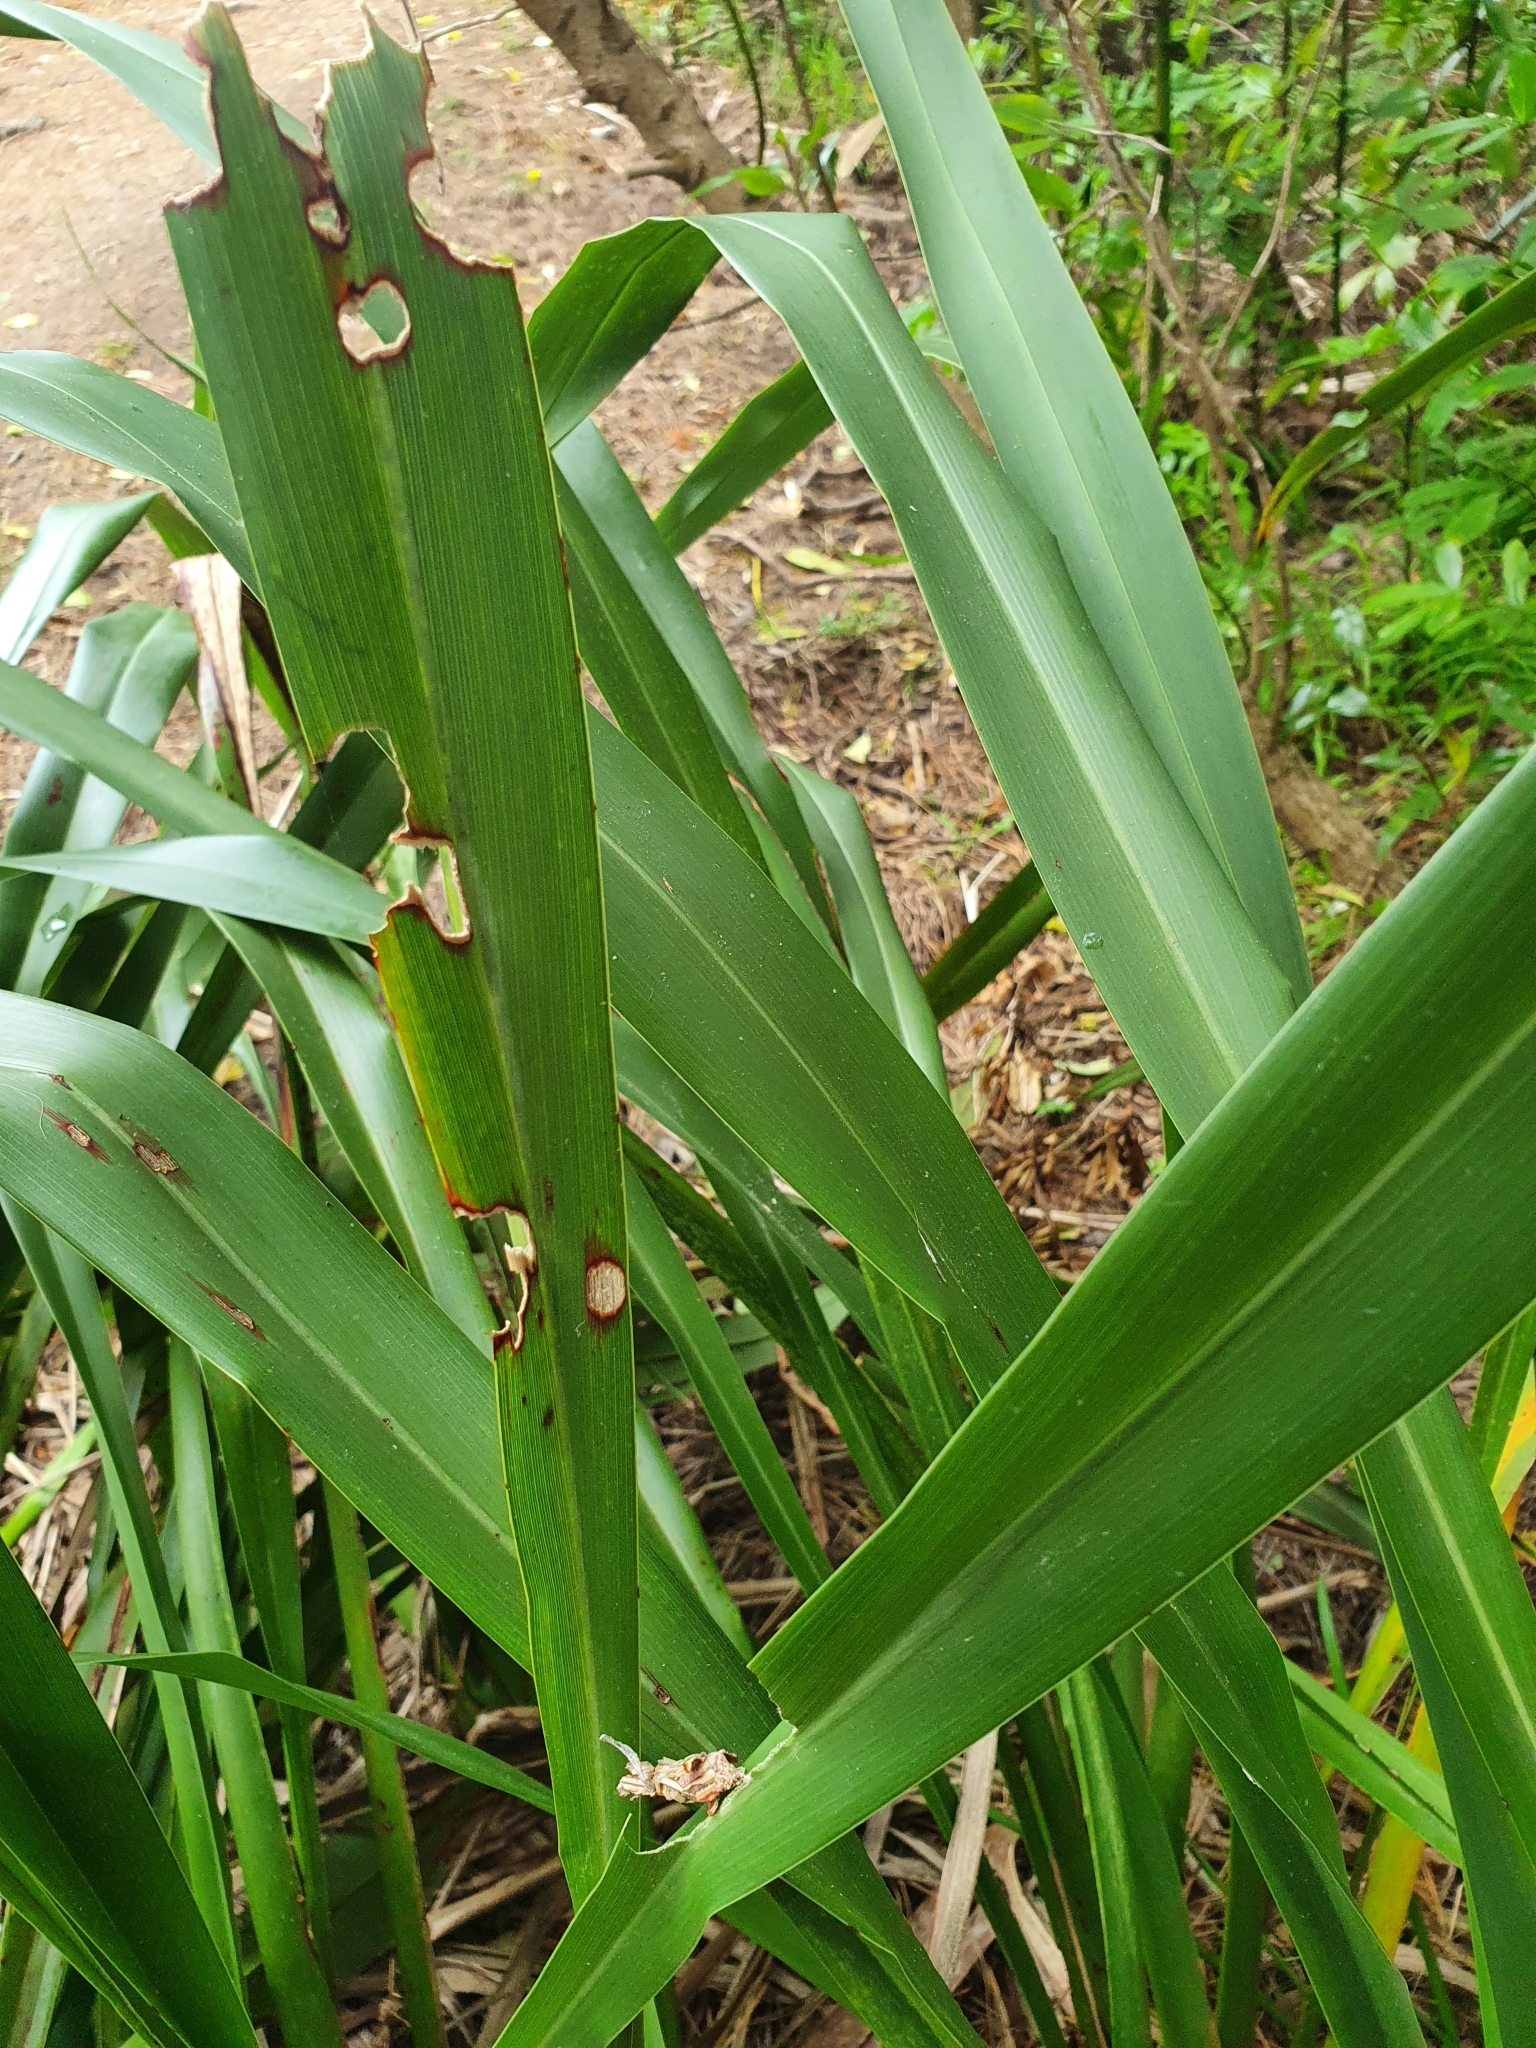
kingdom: Animalia
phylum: Arthropoda
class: Insecta
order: Lepidoptera
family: Psychidae
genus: Liothula
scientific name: Liothula omnivora
